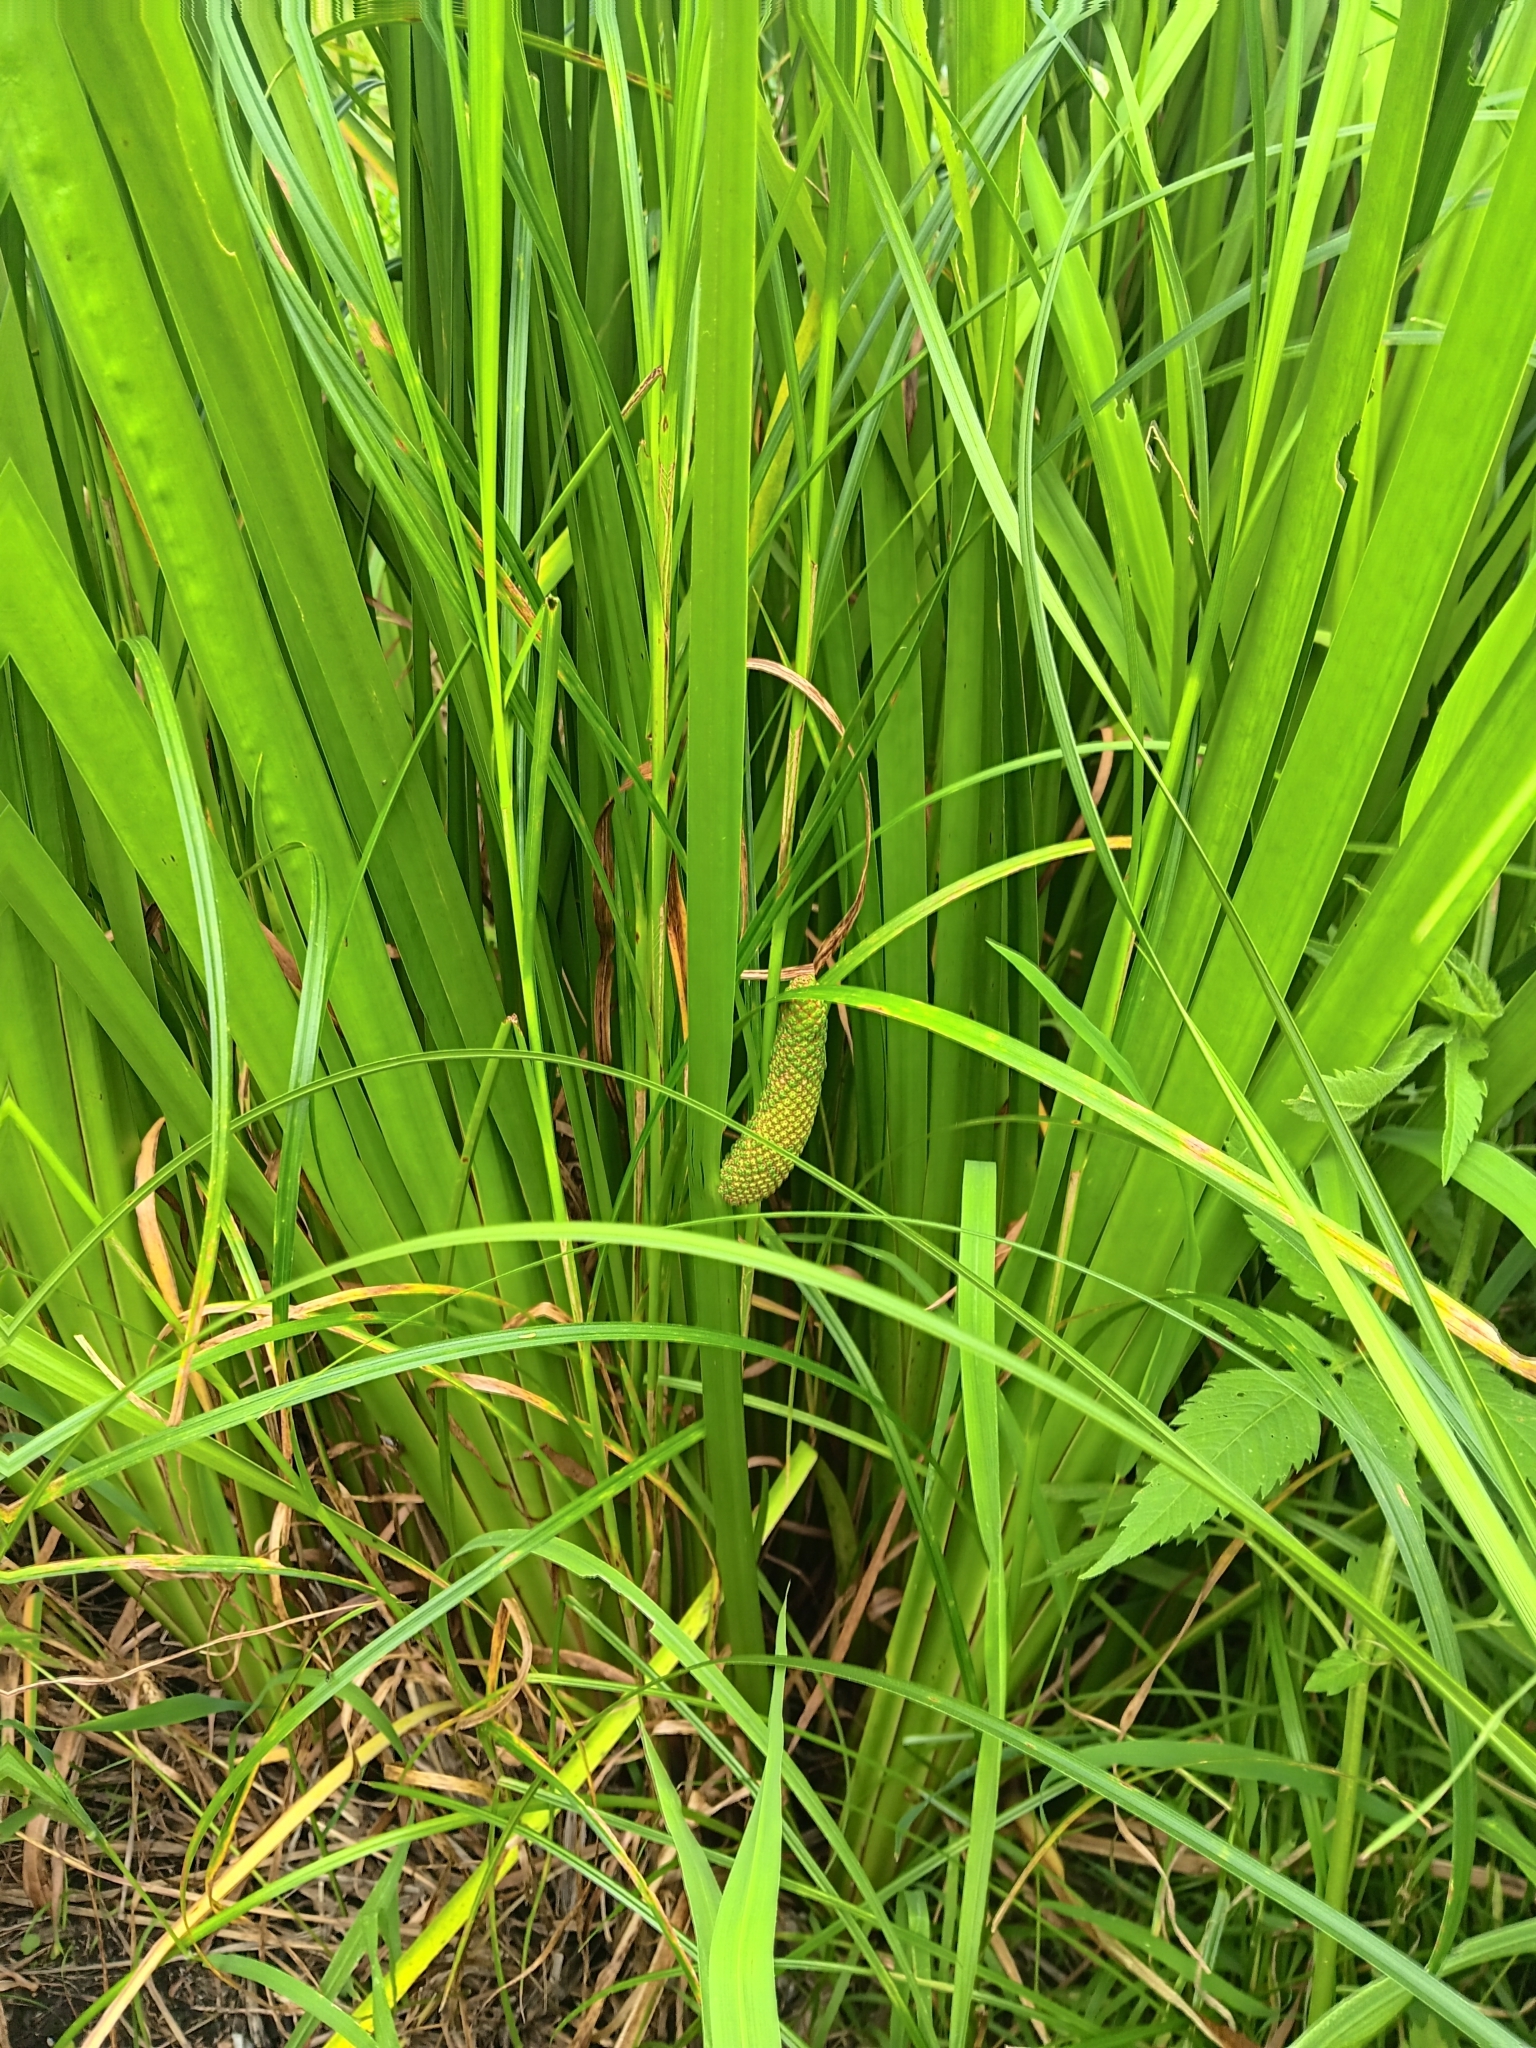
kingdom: Plantae
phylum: Tracheophyta
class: Liliopsida
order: Acorales
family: Acoraceae
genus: Acorus
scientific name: Acorus calamus
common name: Sweet-flag
